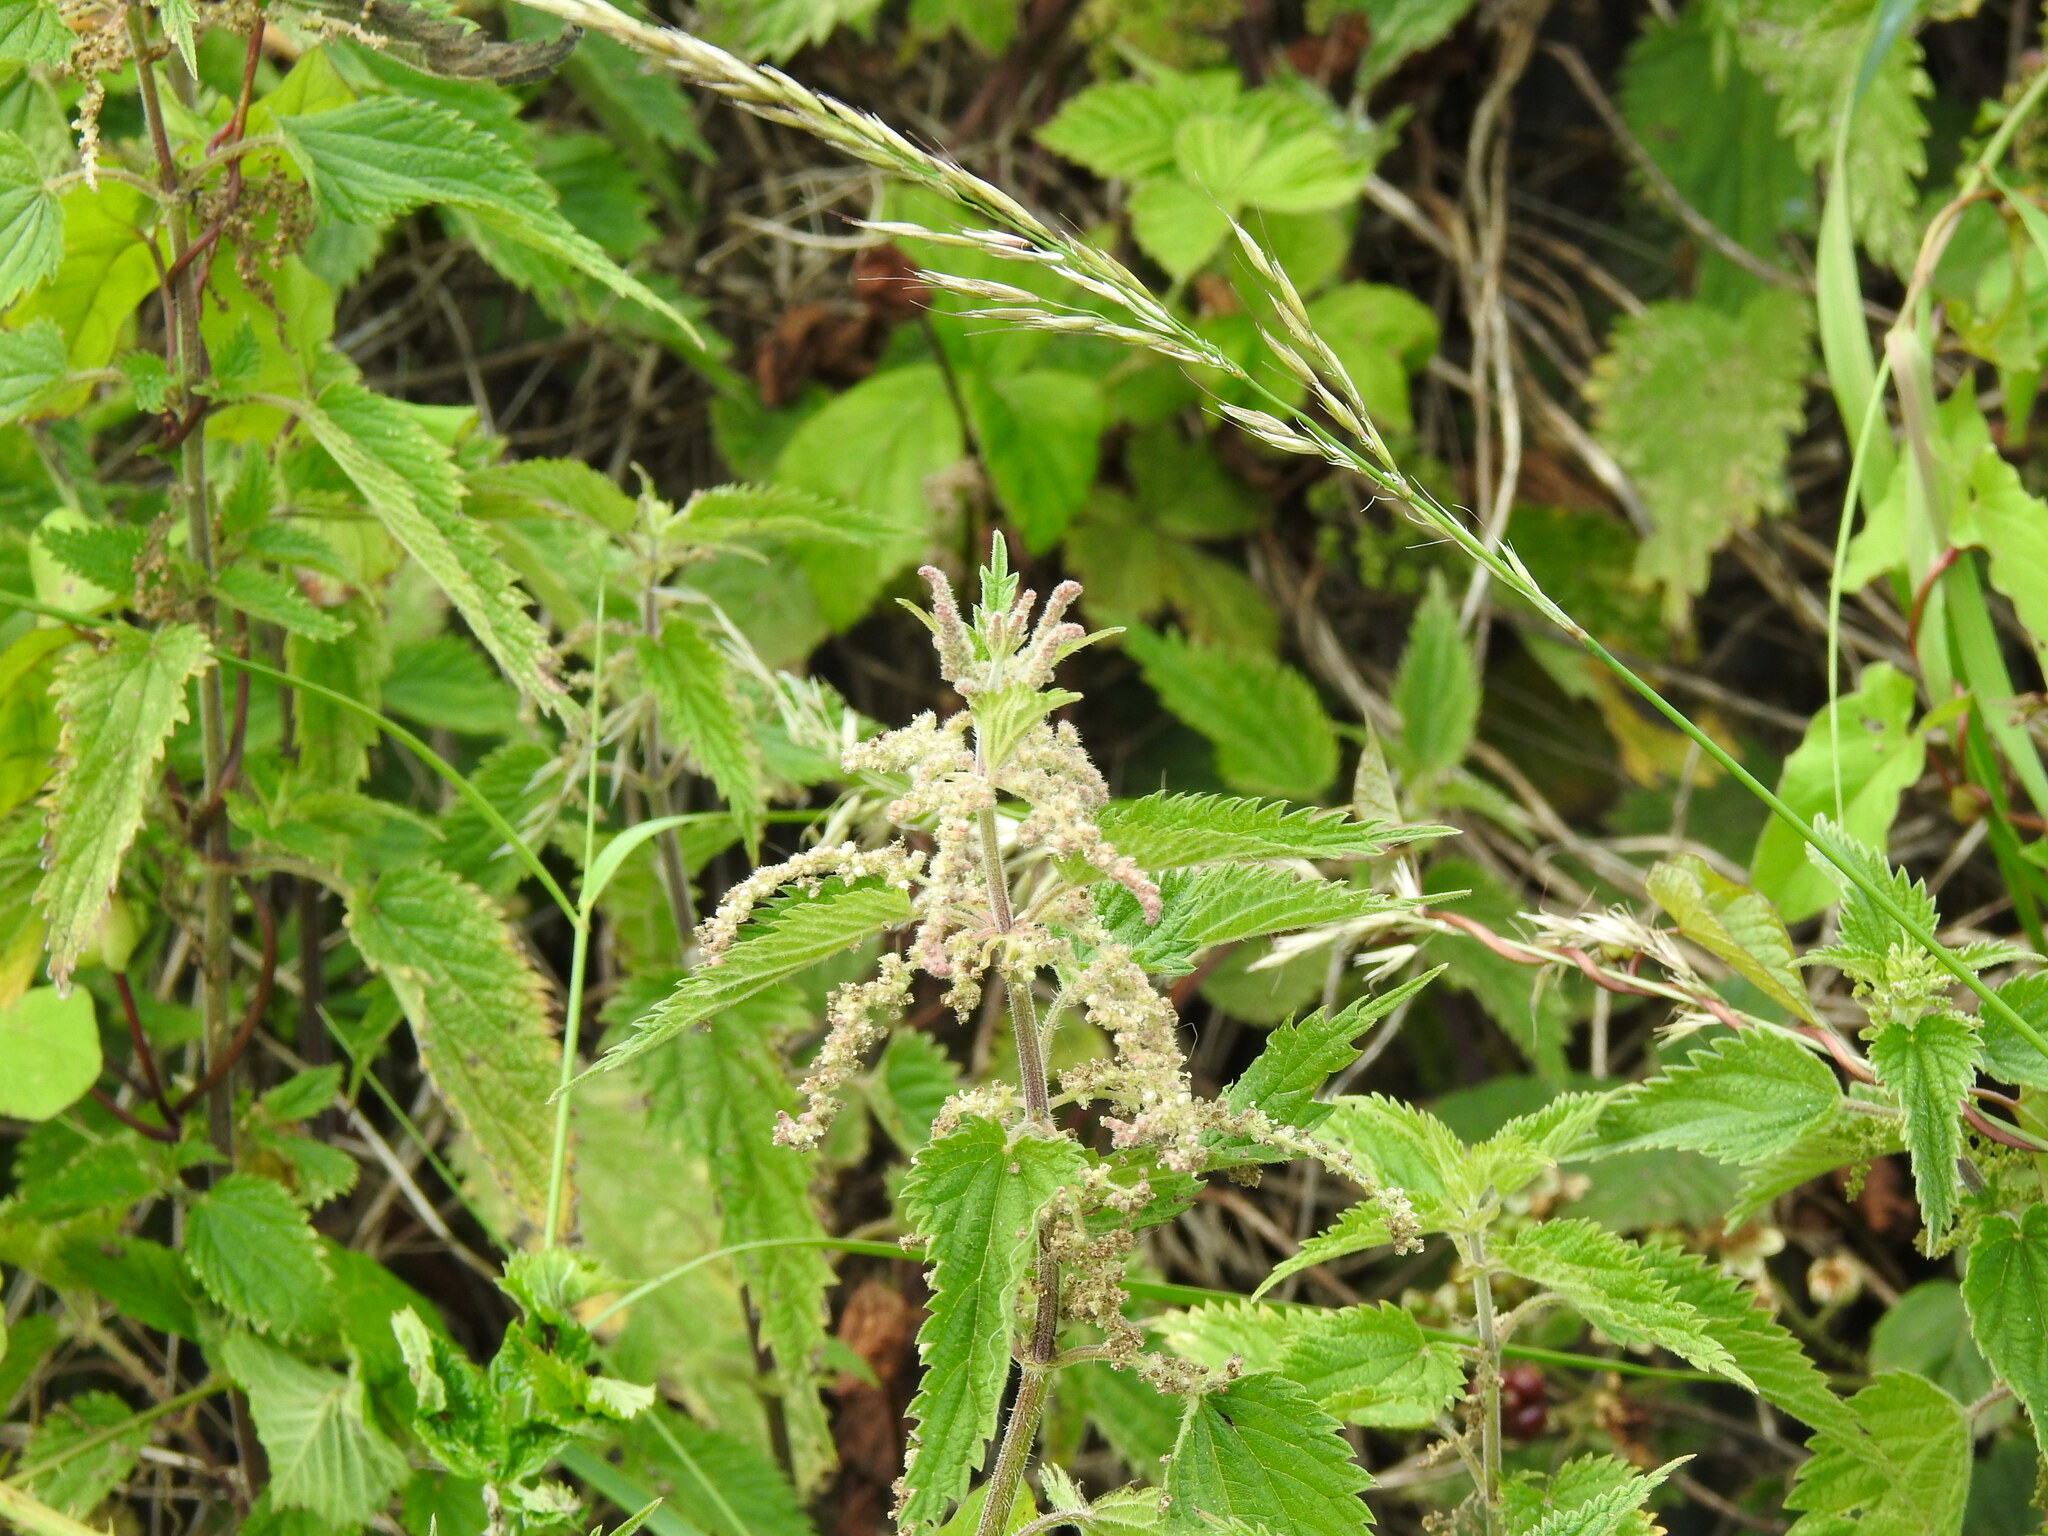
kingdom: Plantae
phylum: Tracheophyta
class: Magnoliopsida
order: Rosales
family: Urticaceae
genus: Urtica
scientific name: Urtica dioica
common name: Common nettle
